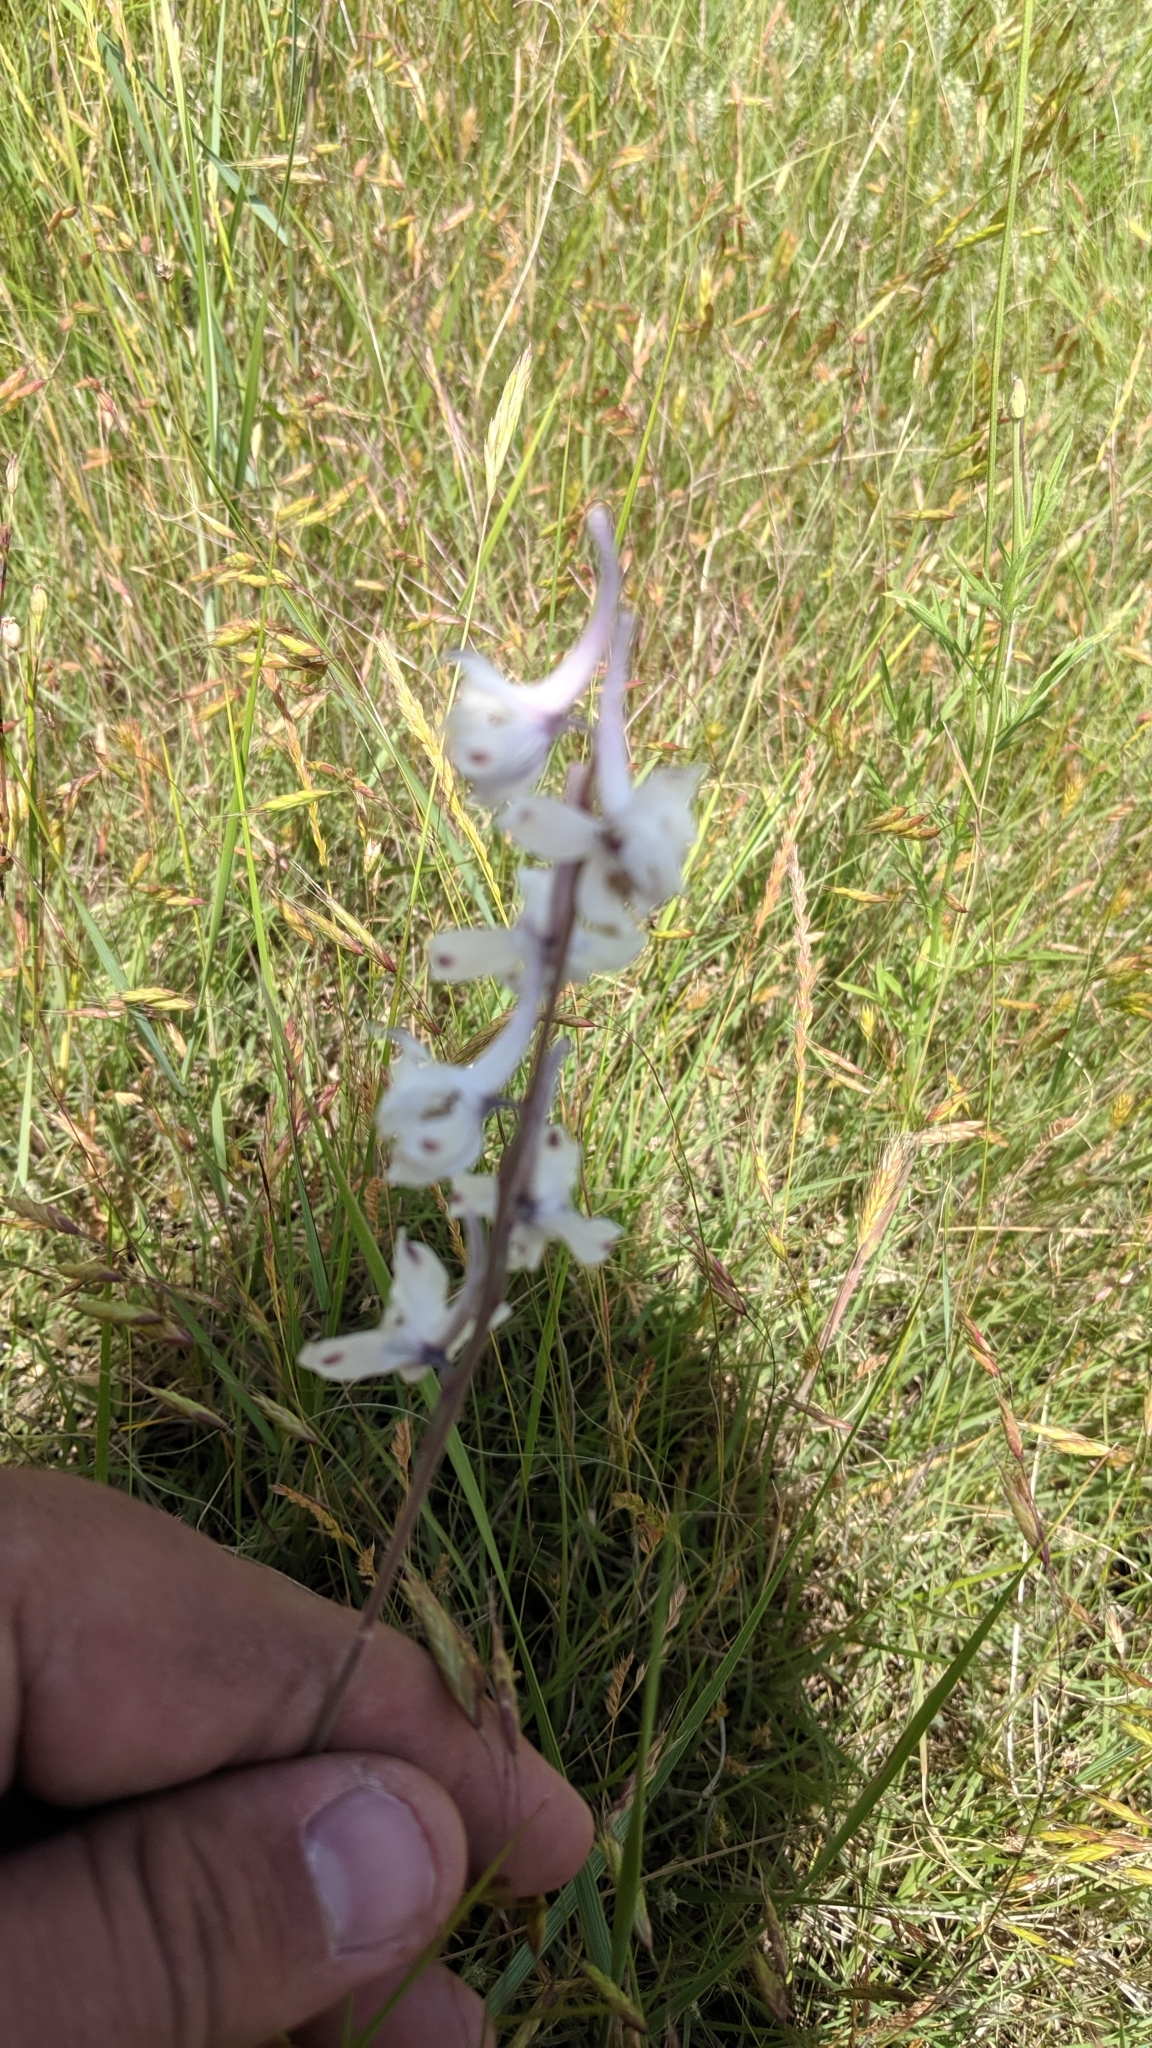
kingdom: Plantae
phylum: Tracheophyta
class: Magnoliopsida
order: Ranunculales
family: Ranunculaceae
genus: Delphinium
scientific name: Delphinium carolinianum
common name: Carolina larkspur
